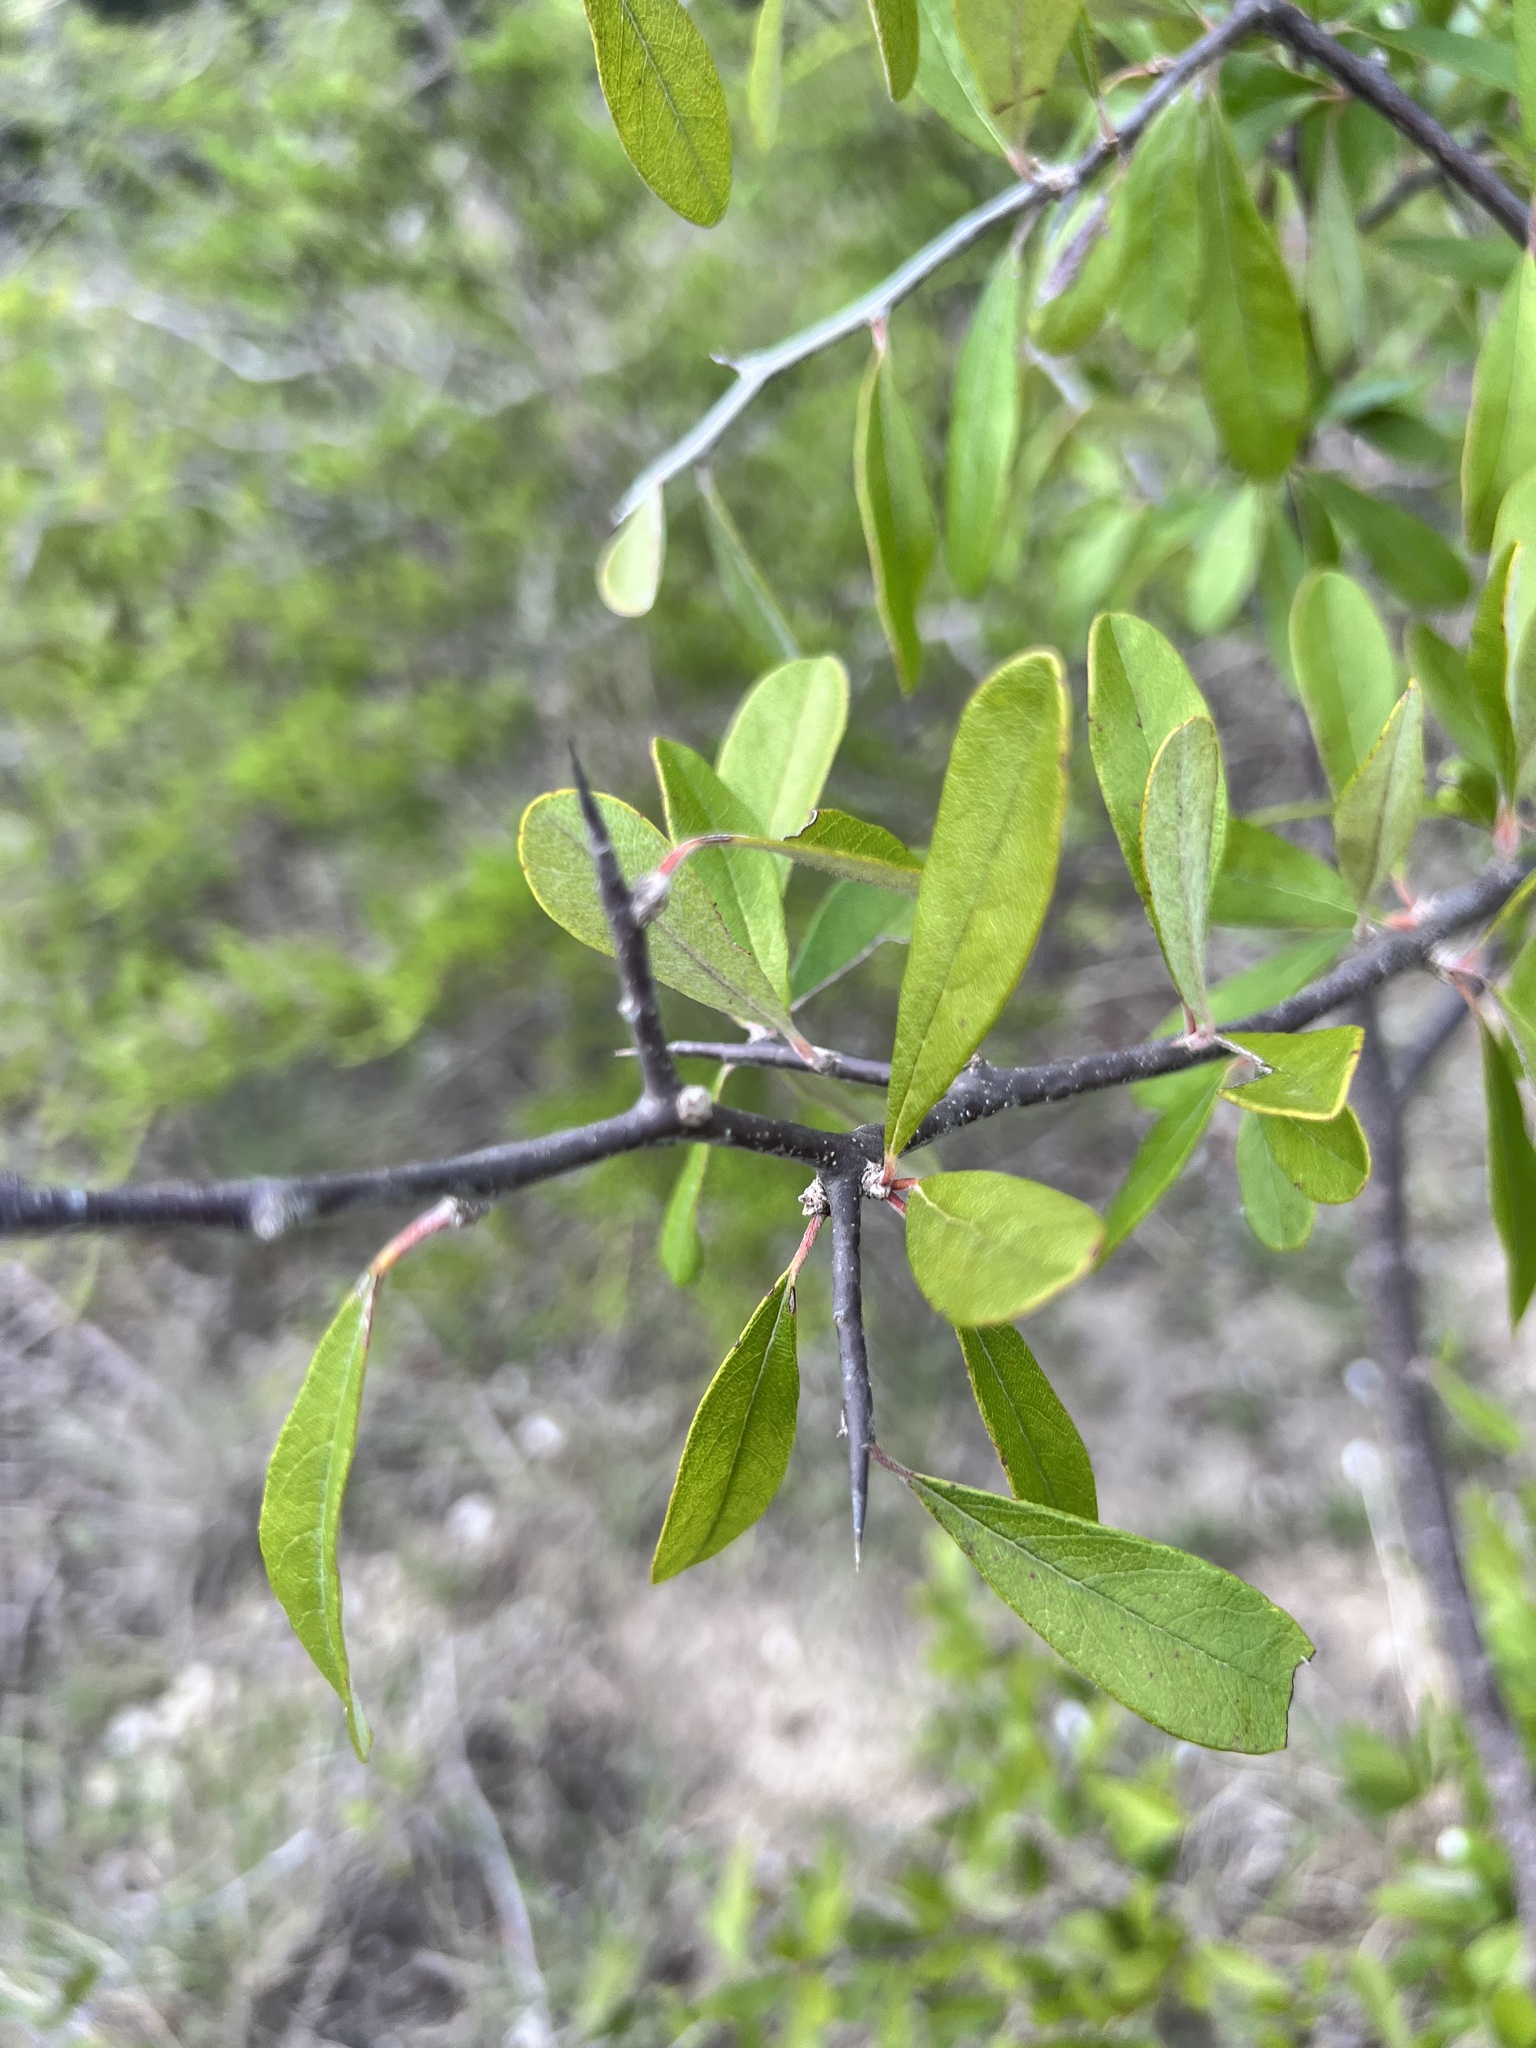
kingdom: Plantae
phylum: Tracheophyta
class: Magnoliopsida
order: Ericales
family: Sapotaceae
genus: Sideroxylon
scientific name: Sideroxylon lanuginosum
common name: Chittamwood
